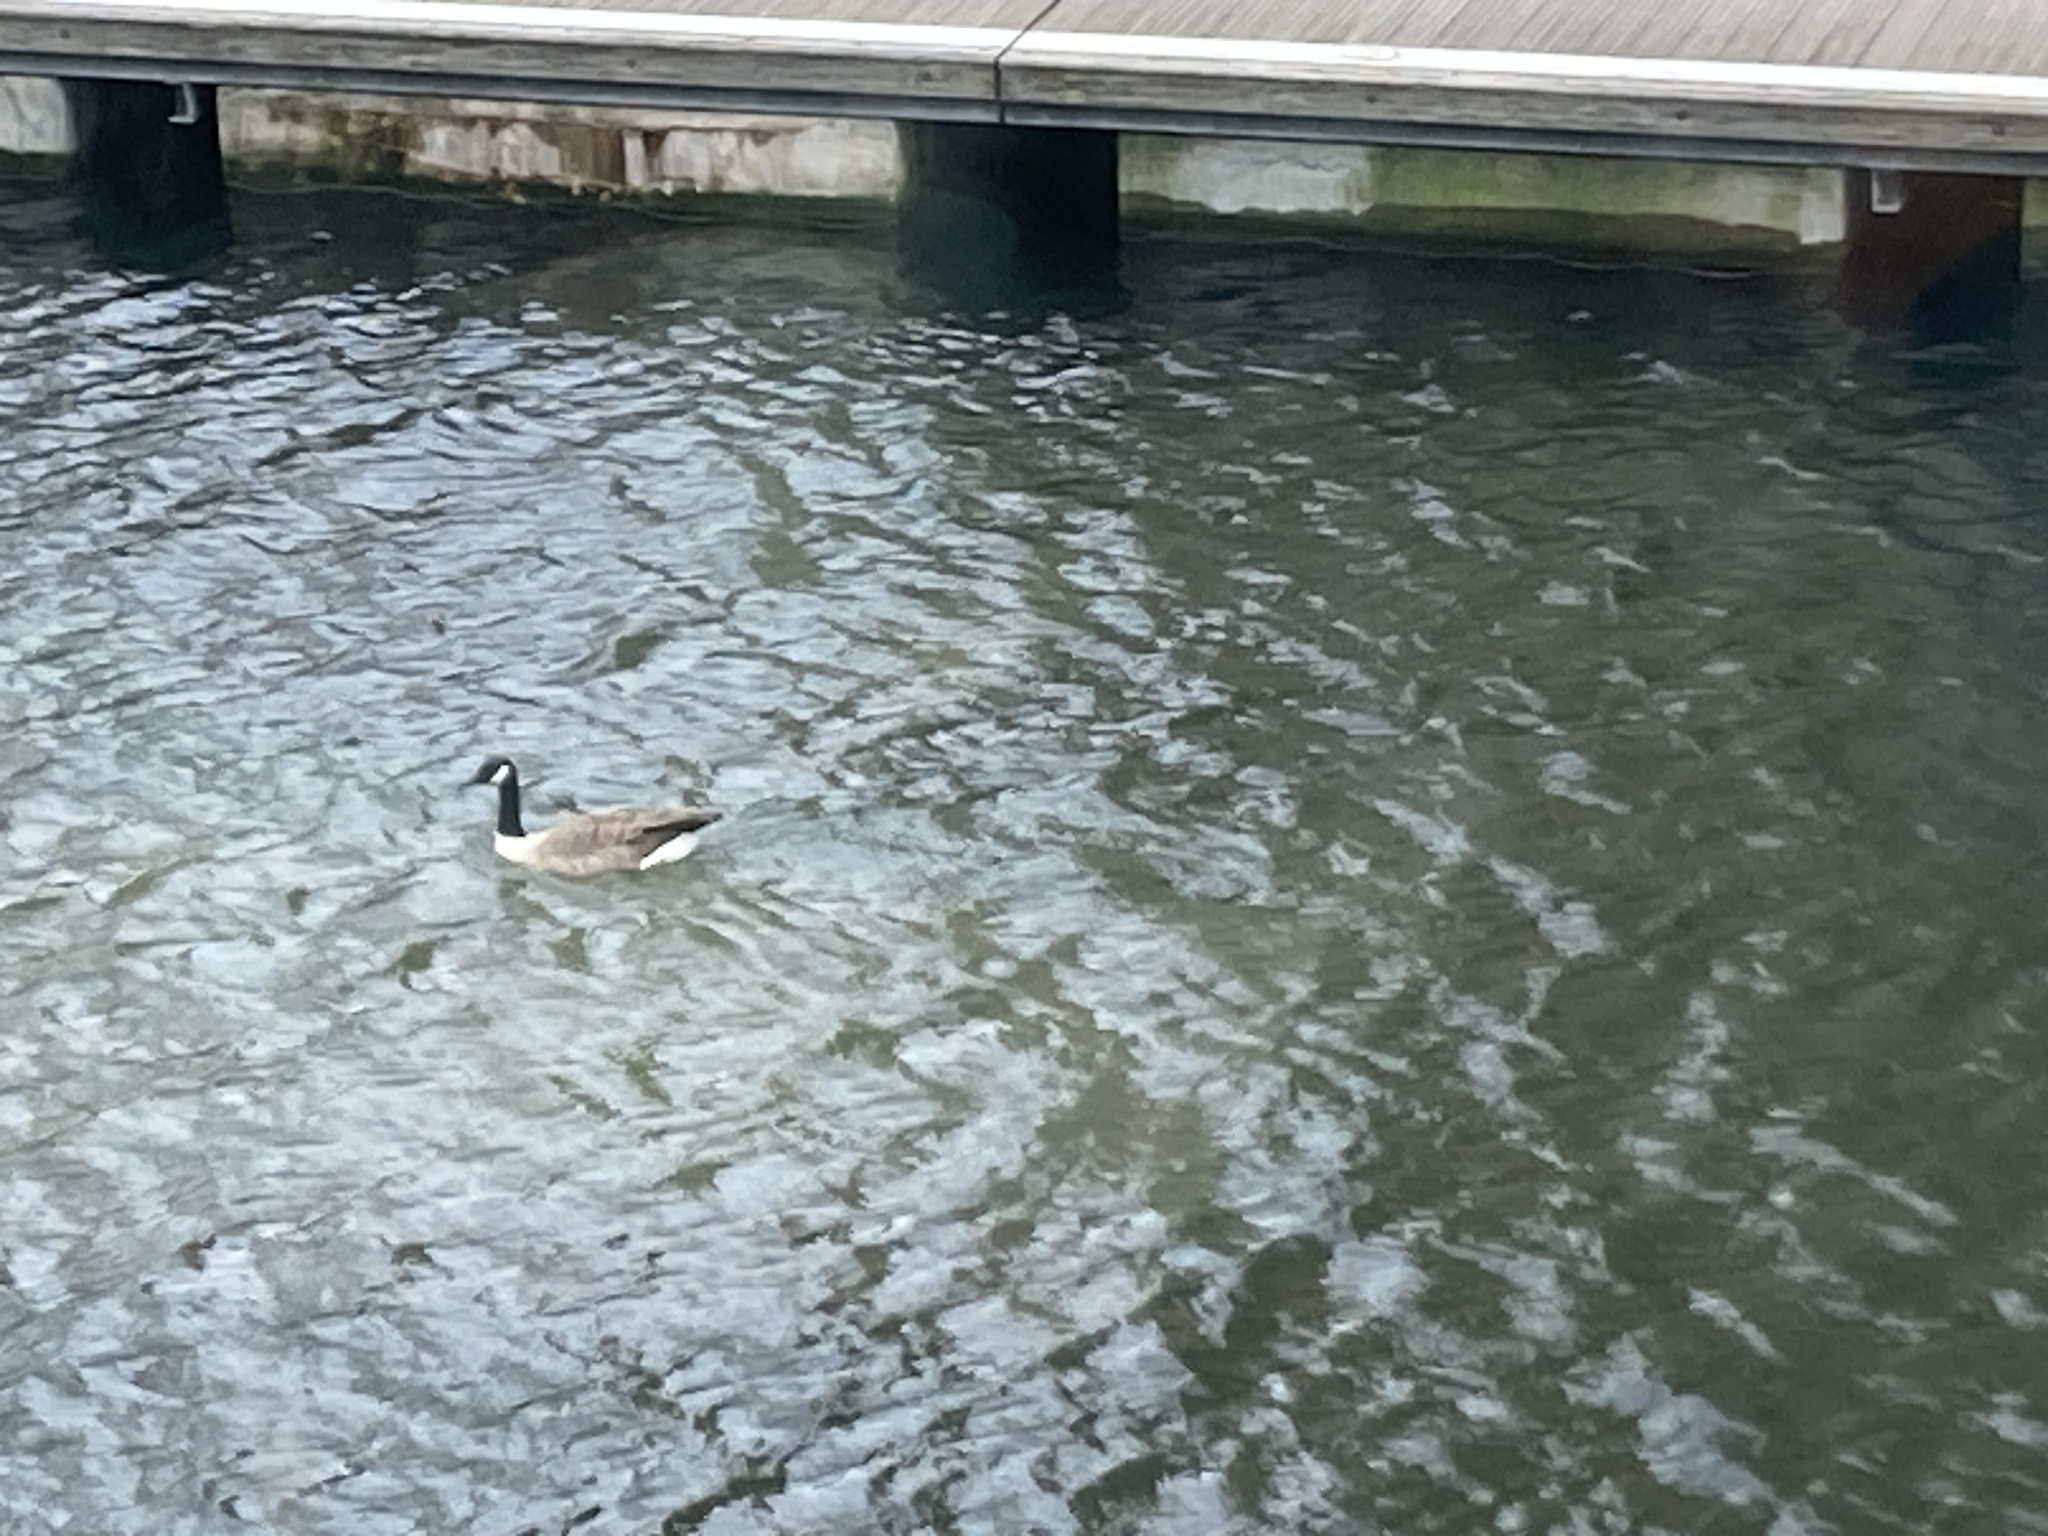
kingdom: Animalia
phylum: Chordata
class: Aves
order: Anseriformes
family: Anatidae
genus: Branta
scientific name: Branta canadensis
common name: Canada goose
